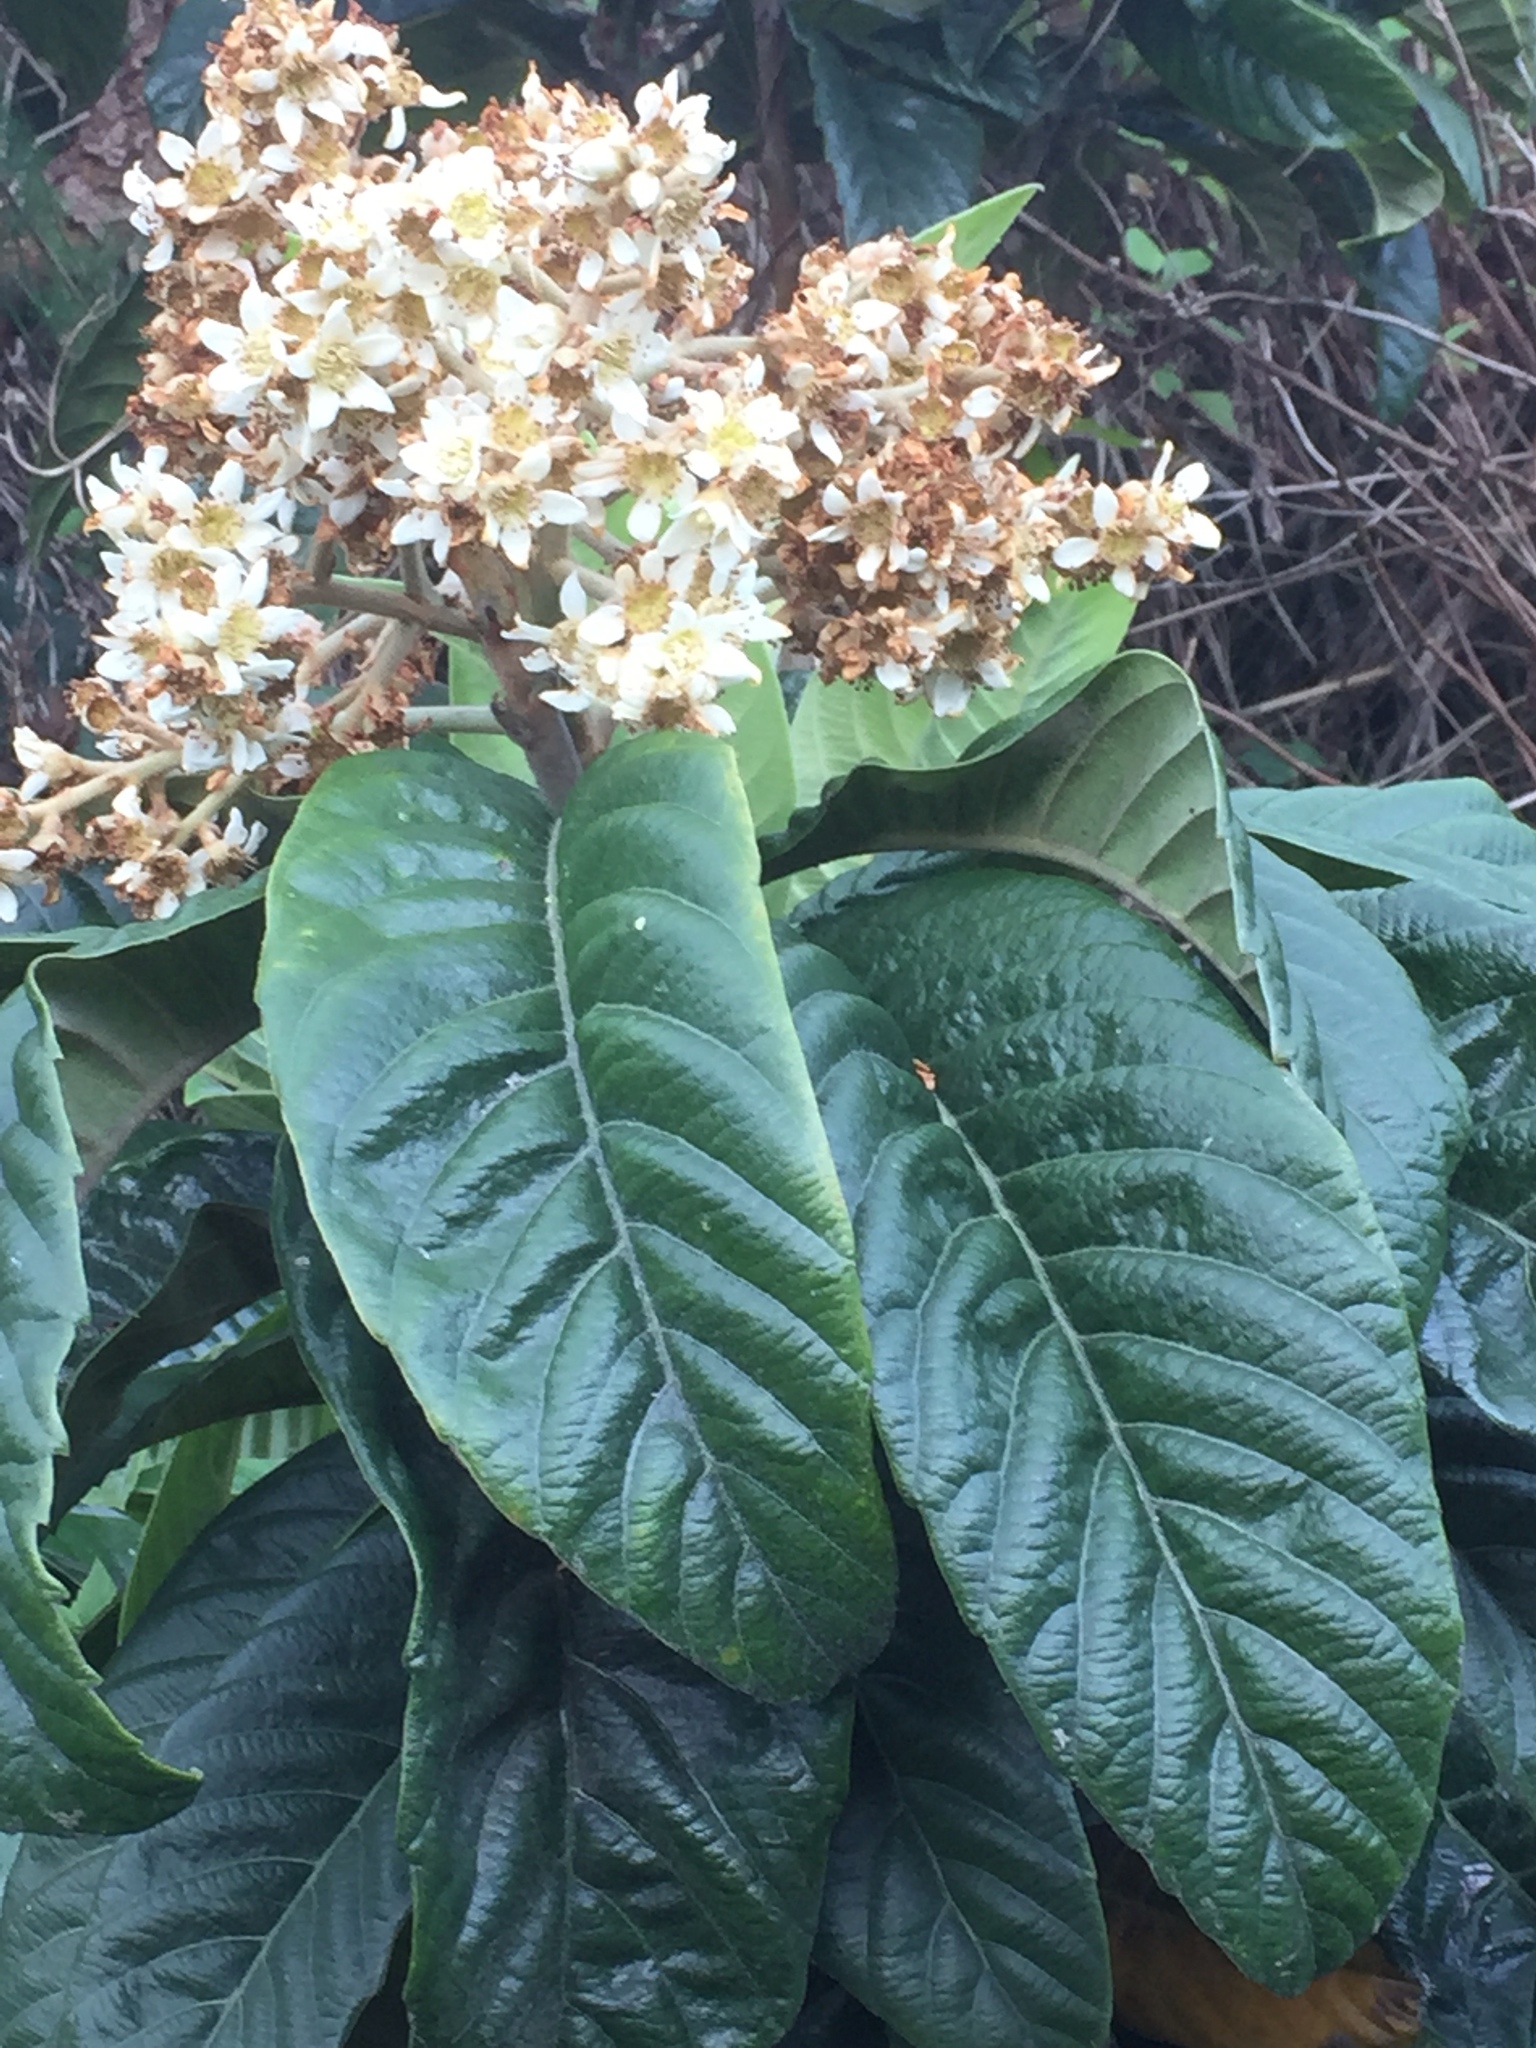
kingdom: Plantae
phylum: Tracheophyta
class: Magnoliopsida
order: Rosales
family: Rosaceae
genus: Rhaphiolepis
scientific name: Rhaphiolepis bibas
